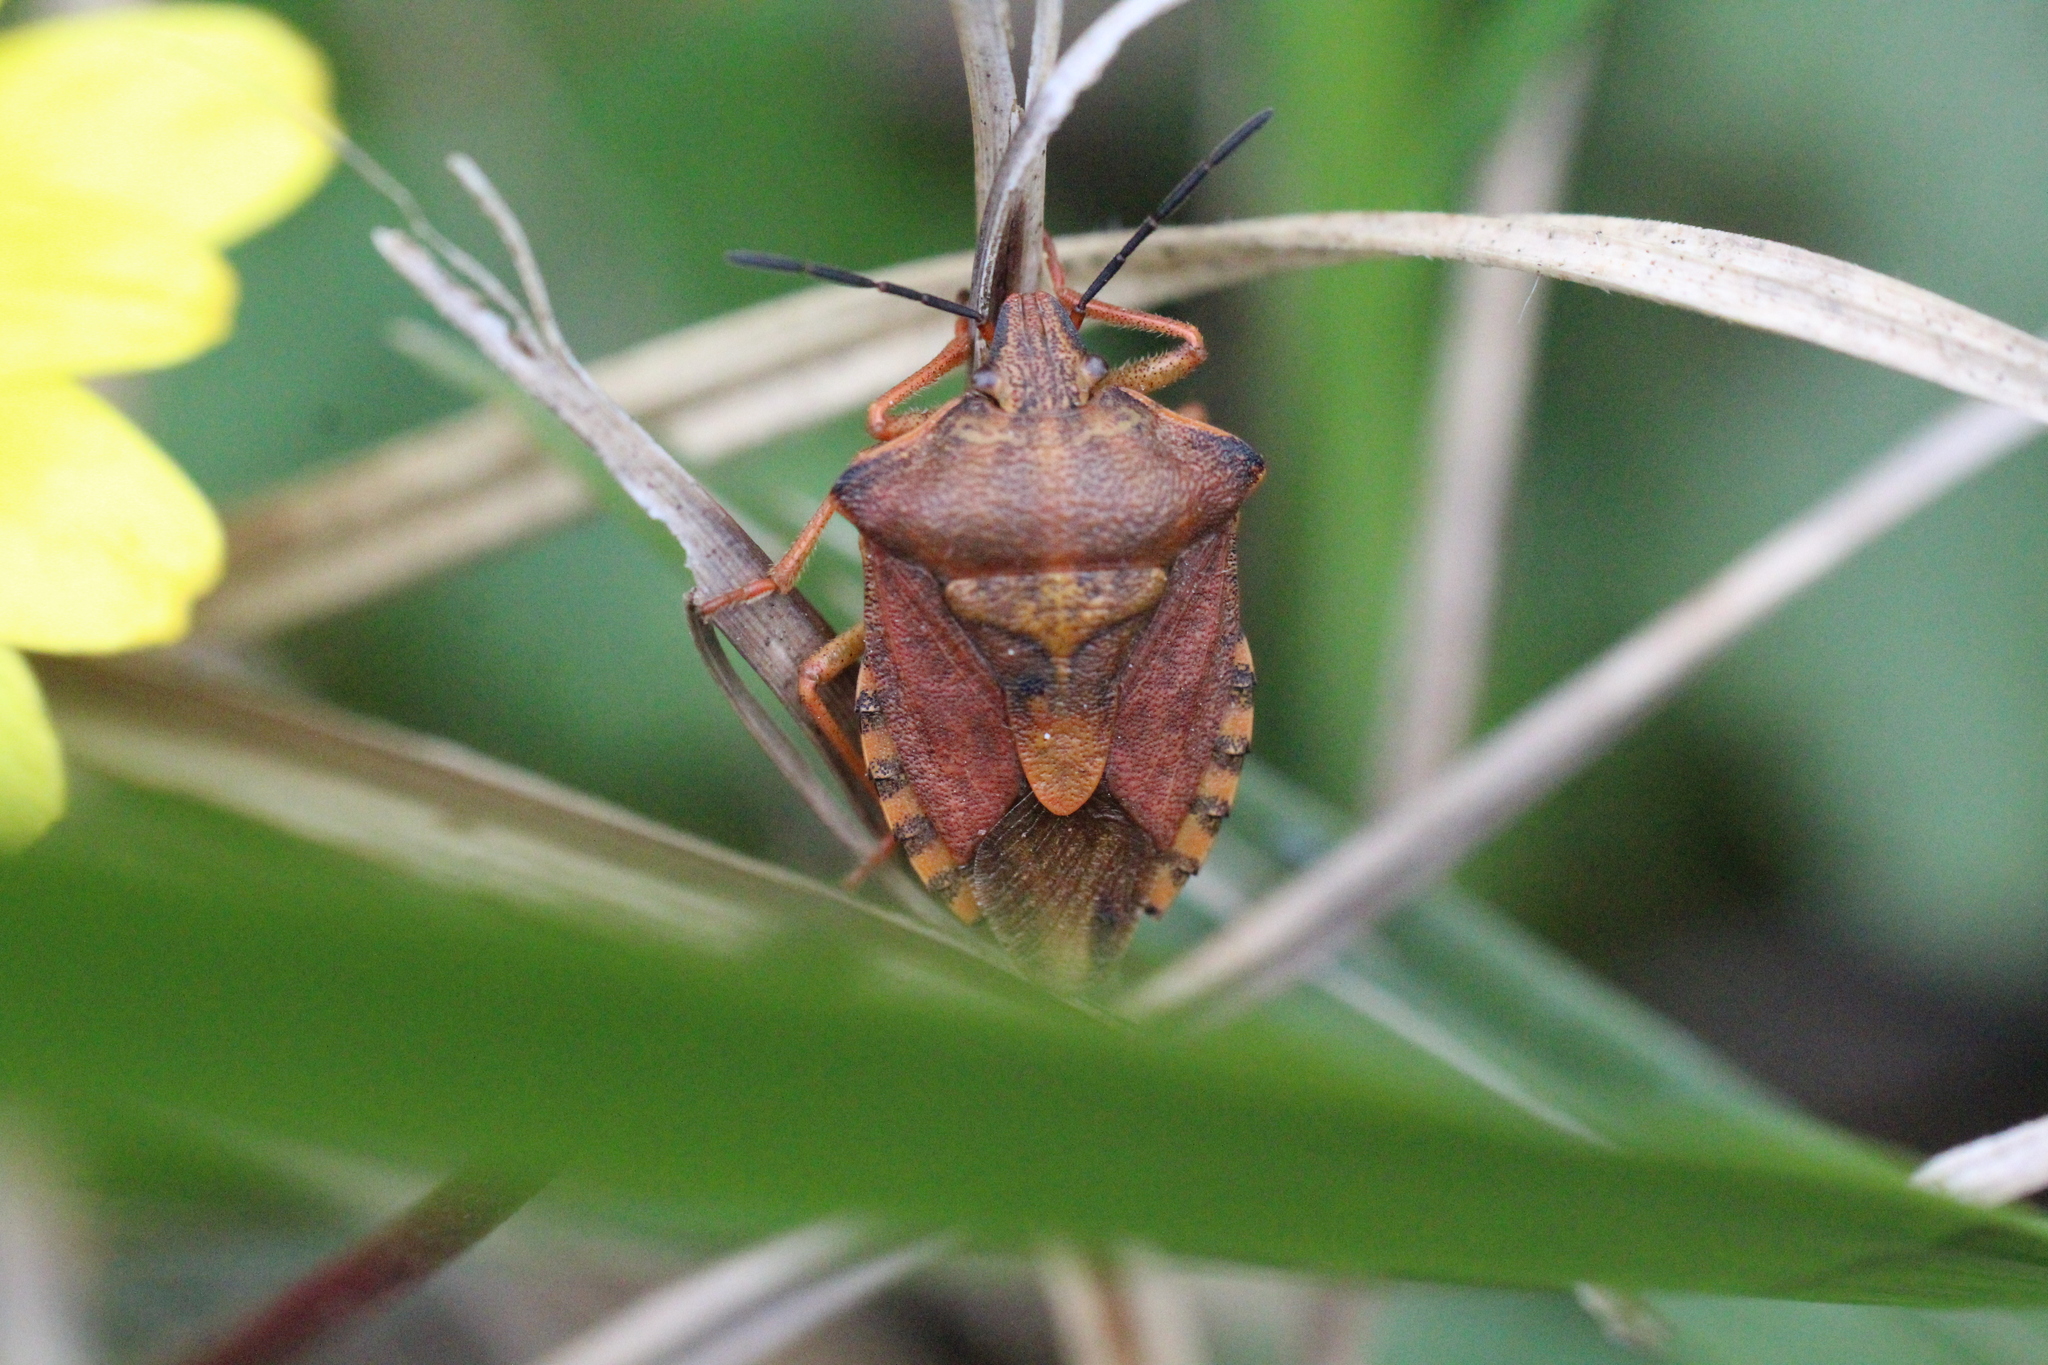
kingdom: Animalia
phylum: Arthropoda
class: Insecta
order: Hemiptera
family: Pentatomidae
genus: Carpocoris
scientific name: Carpocoris purpureipennis
